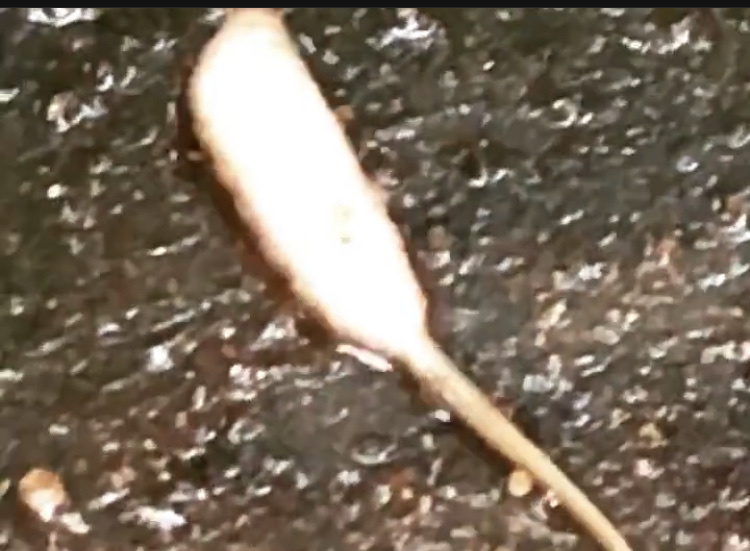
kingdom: Animalia
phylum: Arthropoda
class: Insecta
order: Diptera
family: Syrphidae
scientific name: Syrphidae
